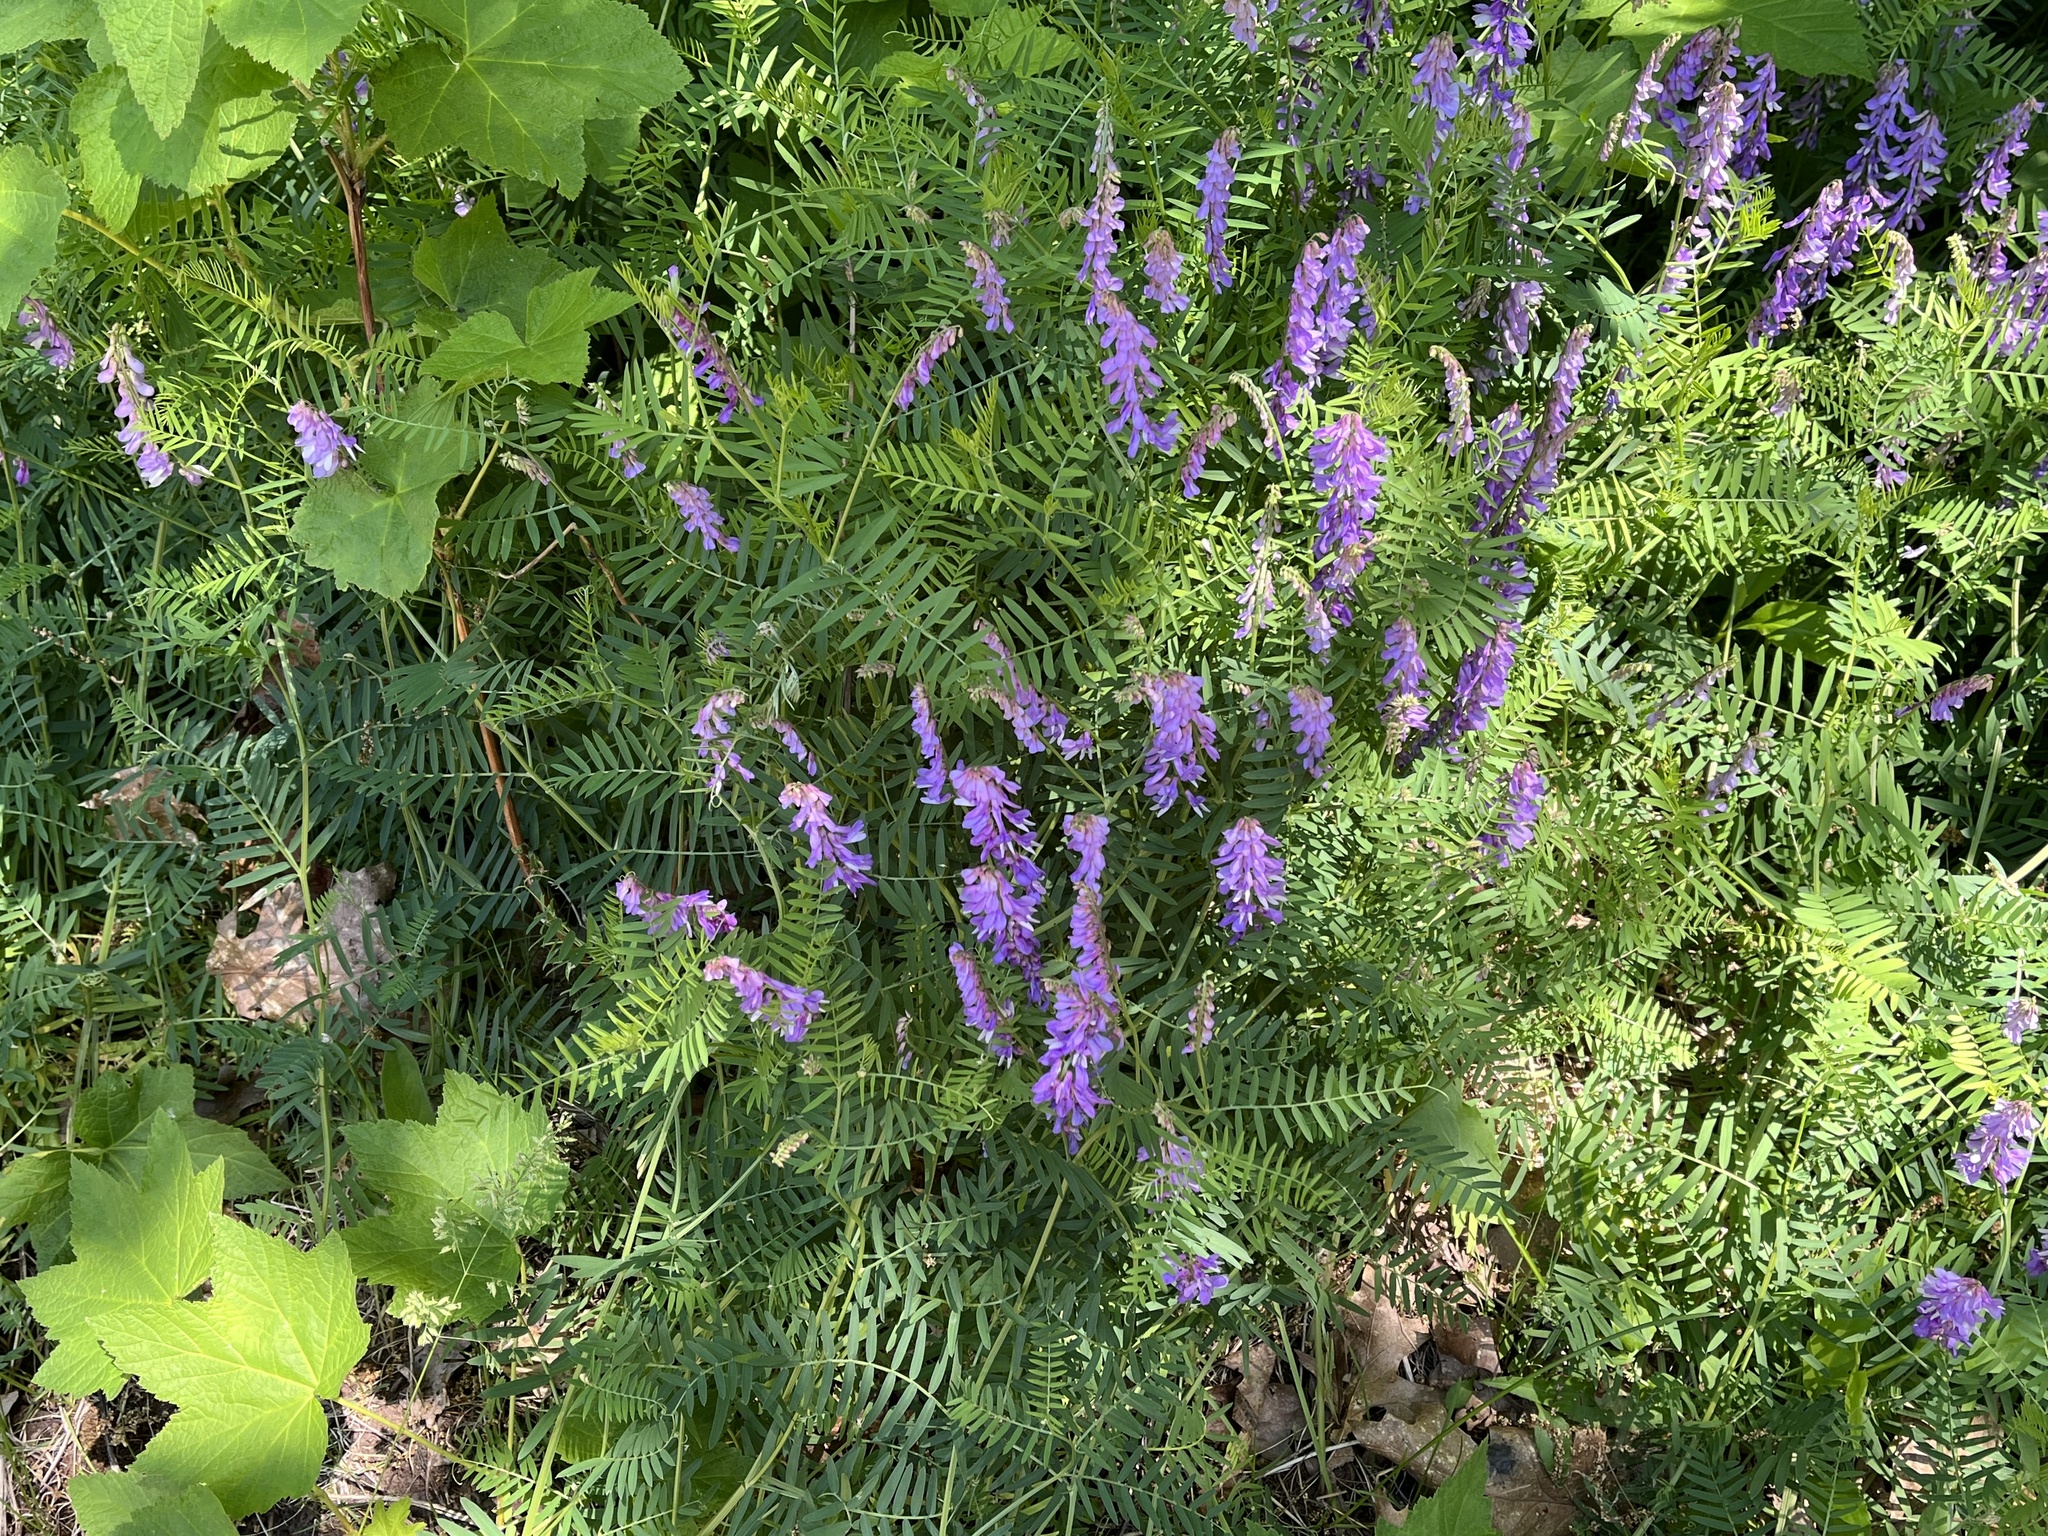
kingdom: Plantae
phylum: Tracheophyta
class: Magnoliopsida
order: Fabales
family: Fabaceae
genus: Vicia
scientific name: Vicia tenuifolia
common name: Fine-leaved vetch
